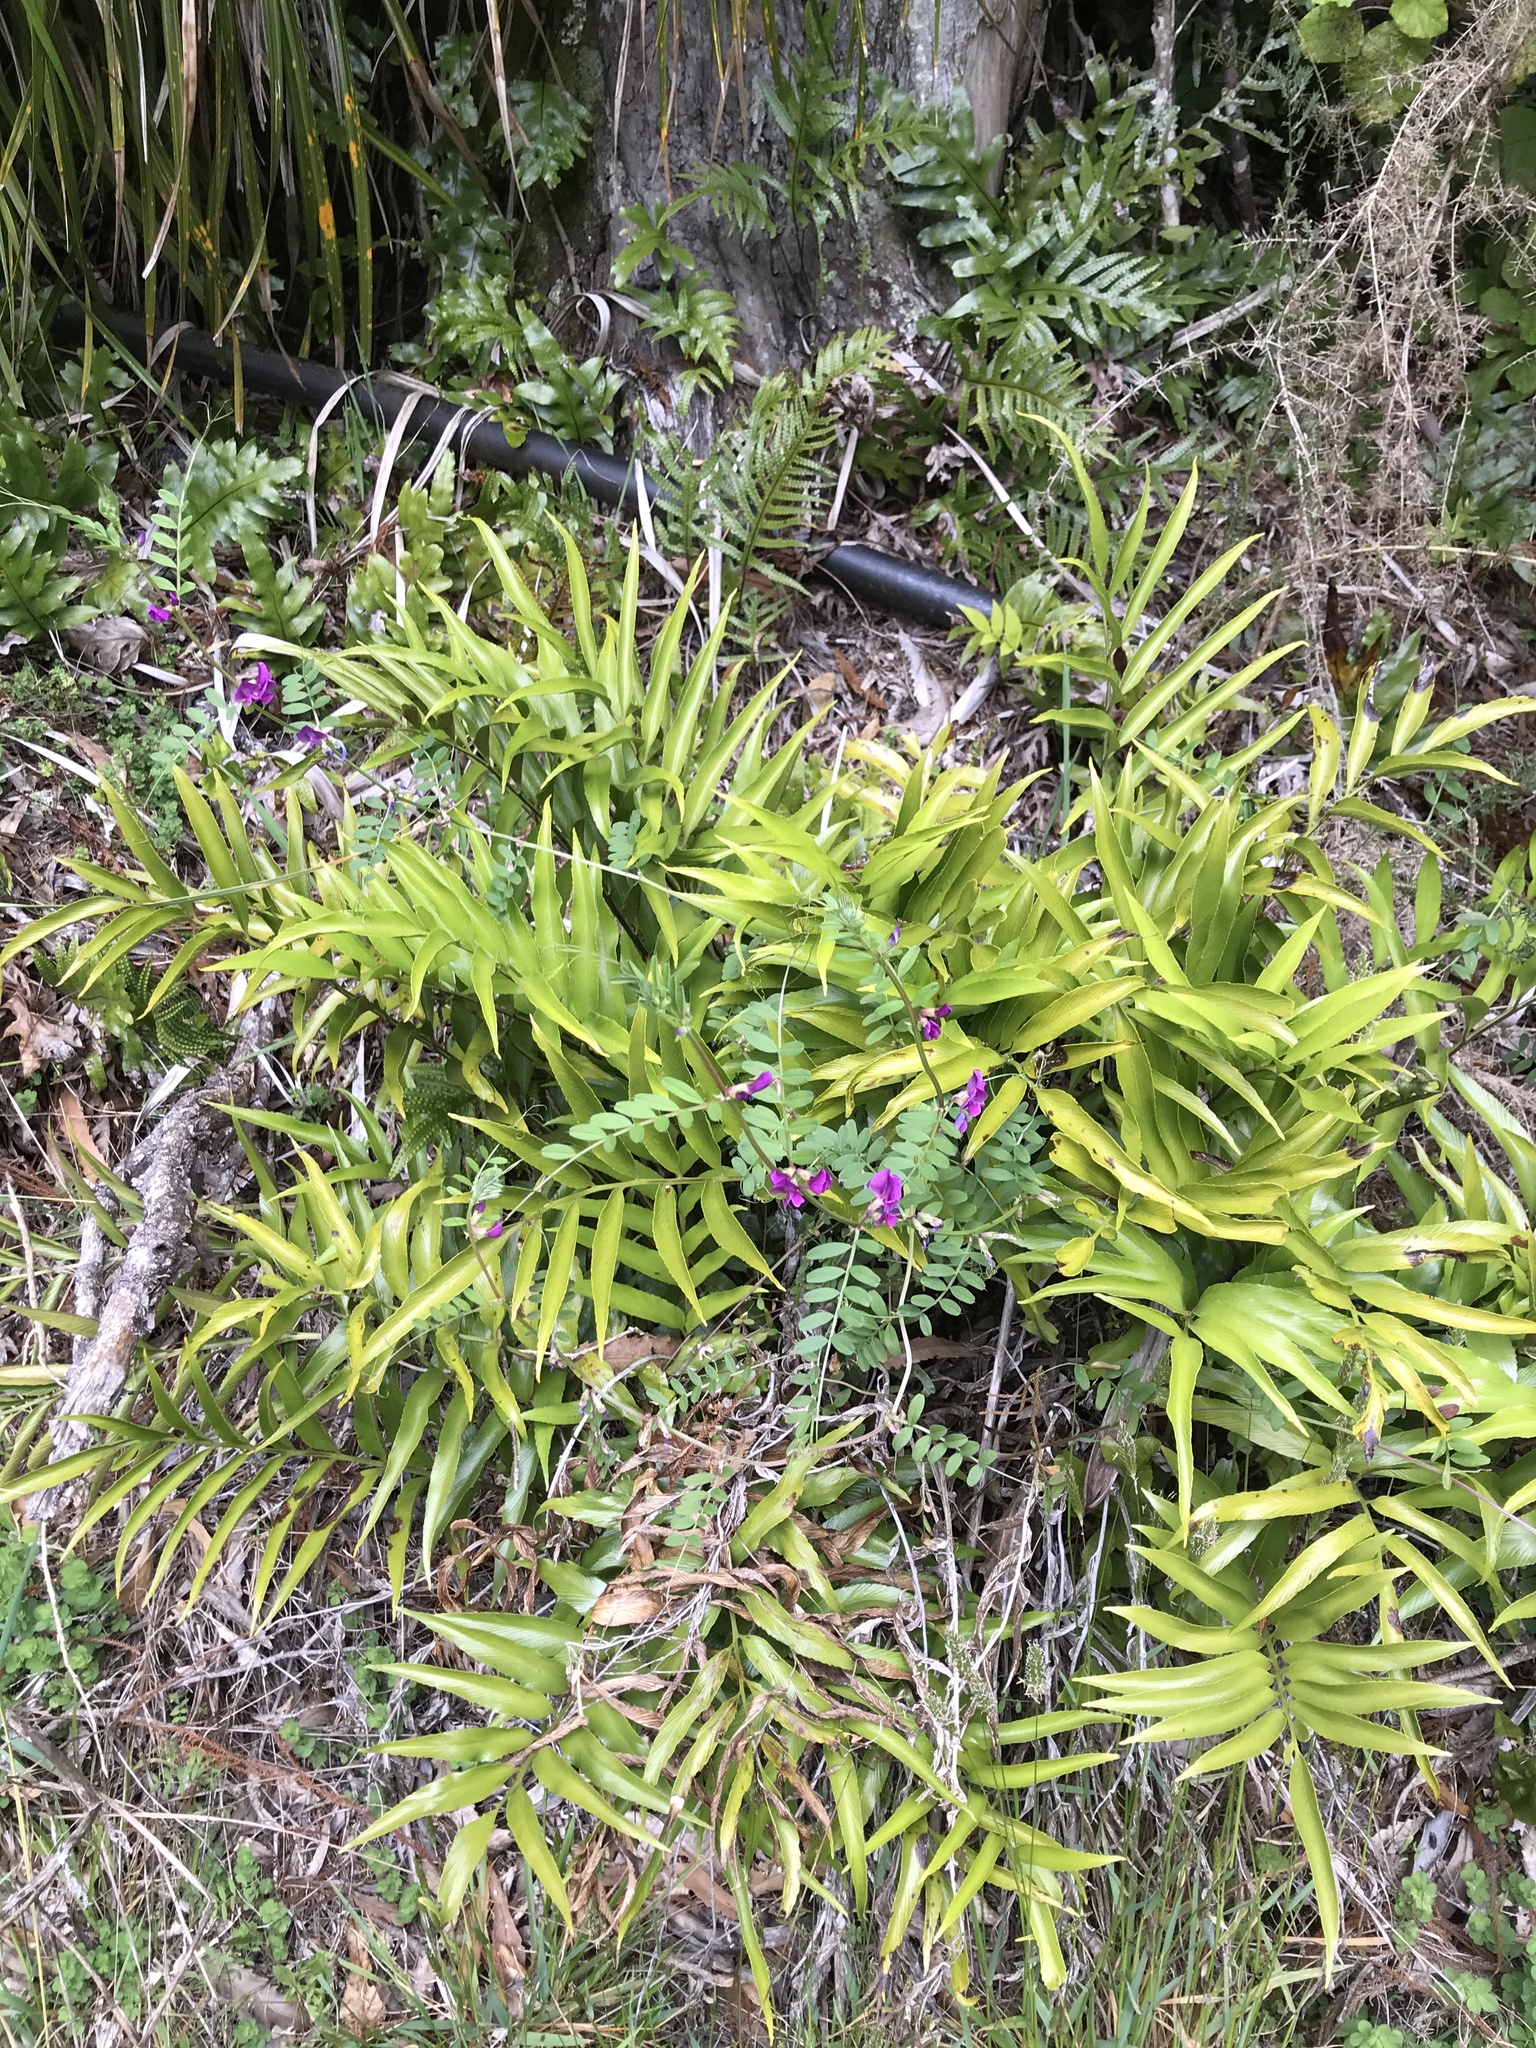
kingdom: Plantae
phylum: Tracheophyta
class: Magnoliopsida
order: Fabales
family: Fabaceae
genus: Vicia
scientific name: Vicia sativa
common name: Garden vetch
